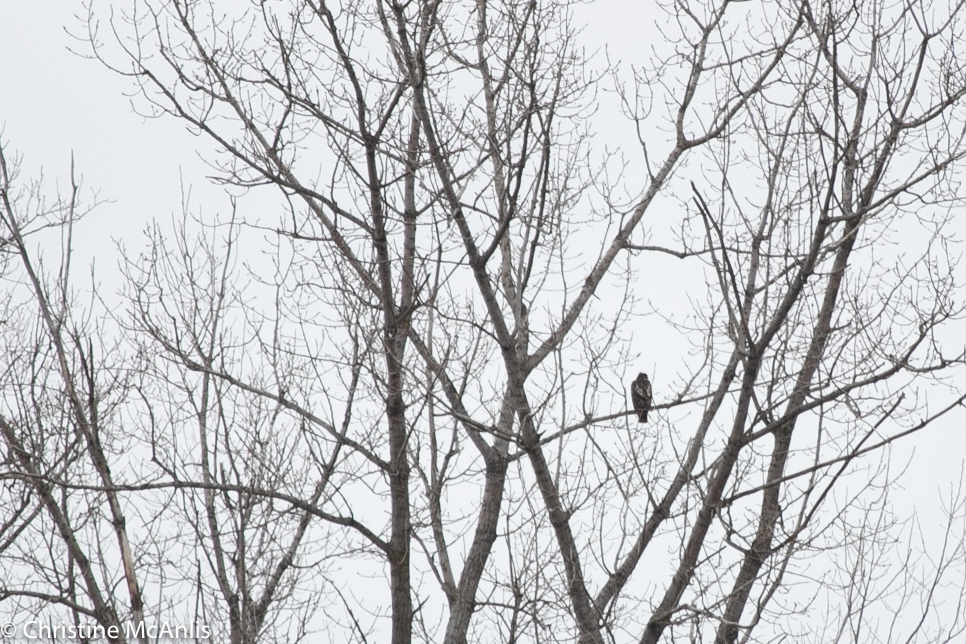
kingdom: Animalia
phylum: Chordata
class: Aves
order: Accipitriformes
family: Accipitridae
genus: Buteo
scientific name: Buteo jamaicensis
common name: Red-tailed hawk
